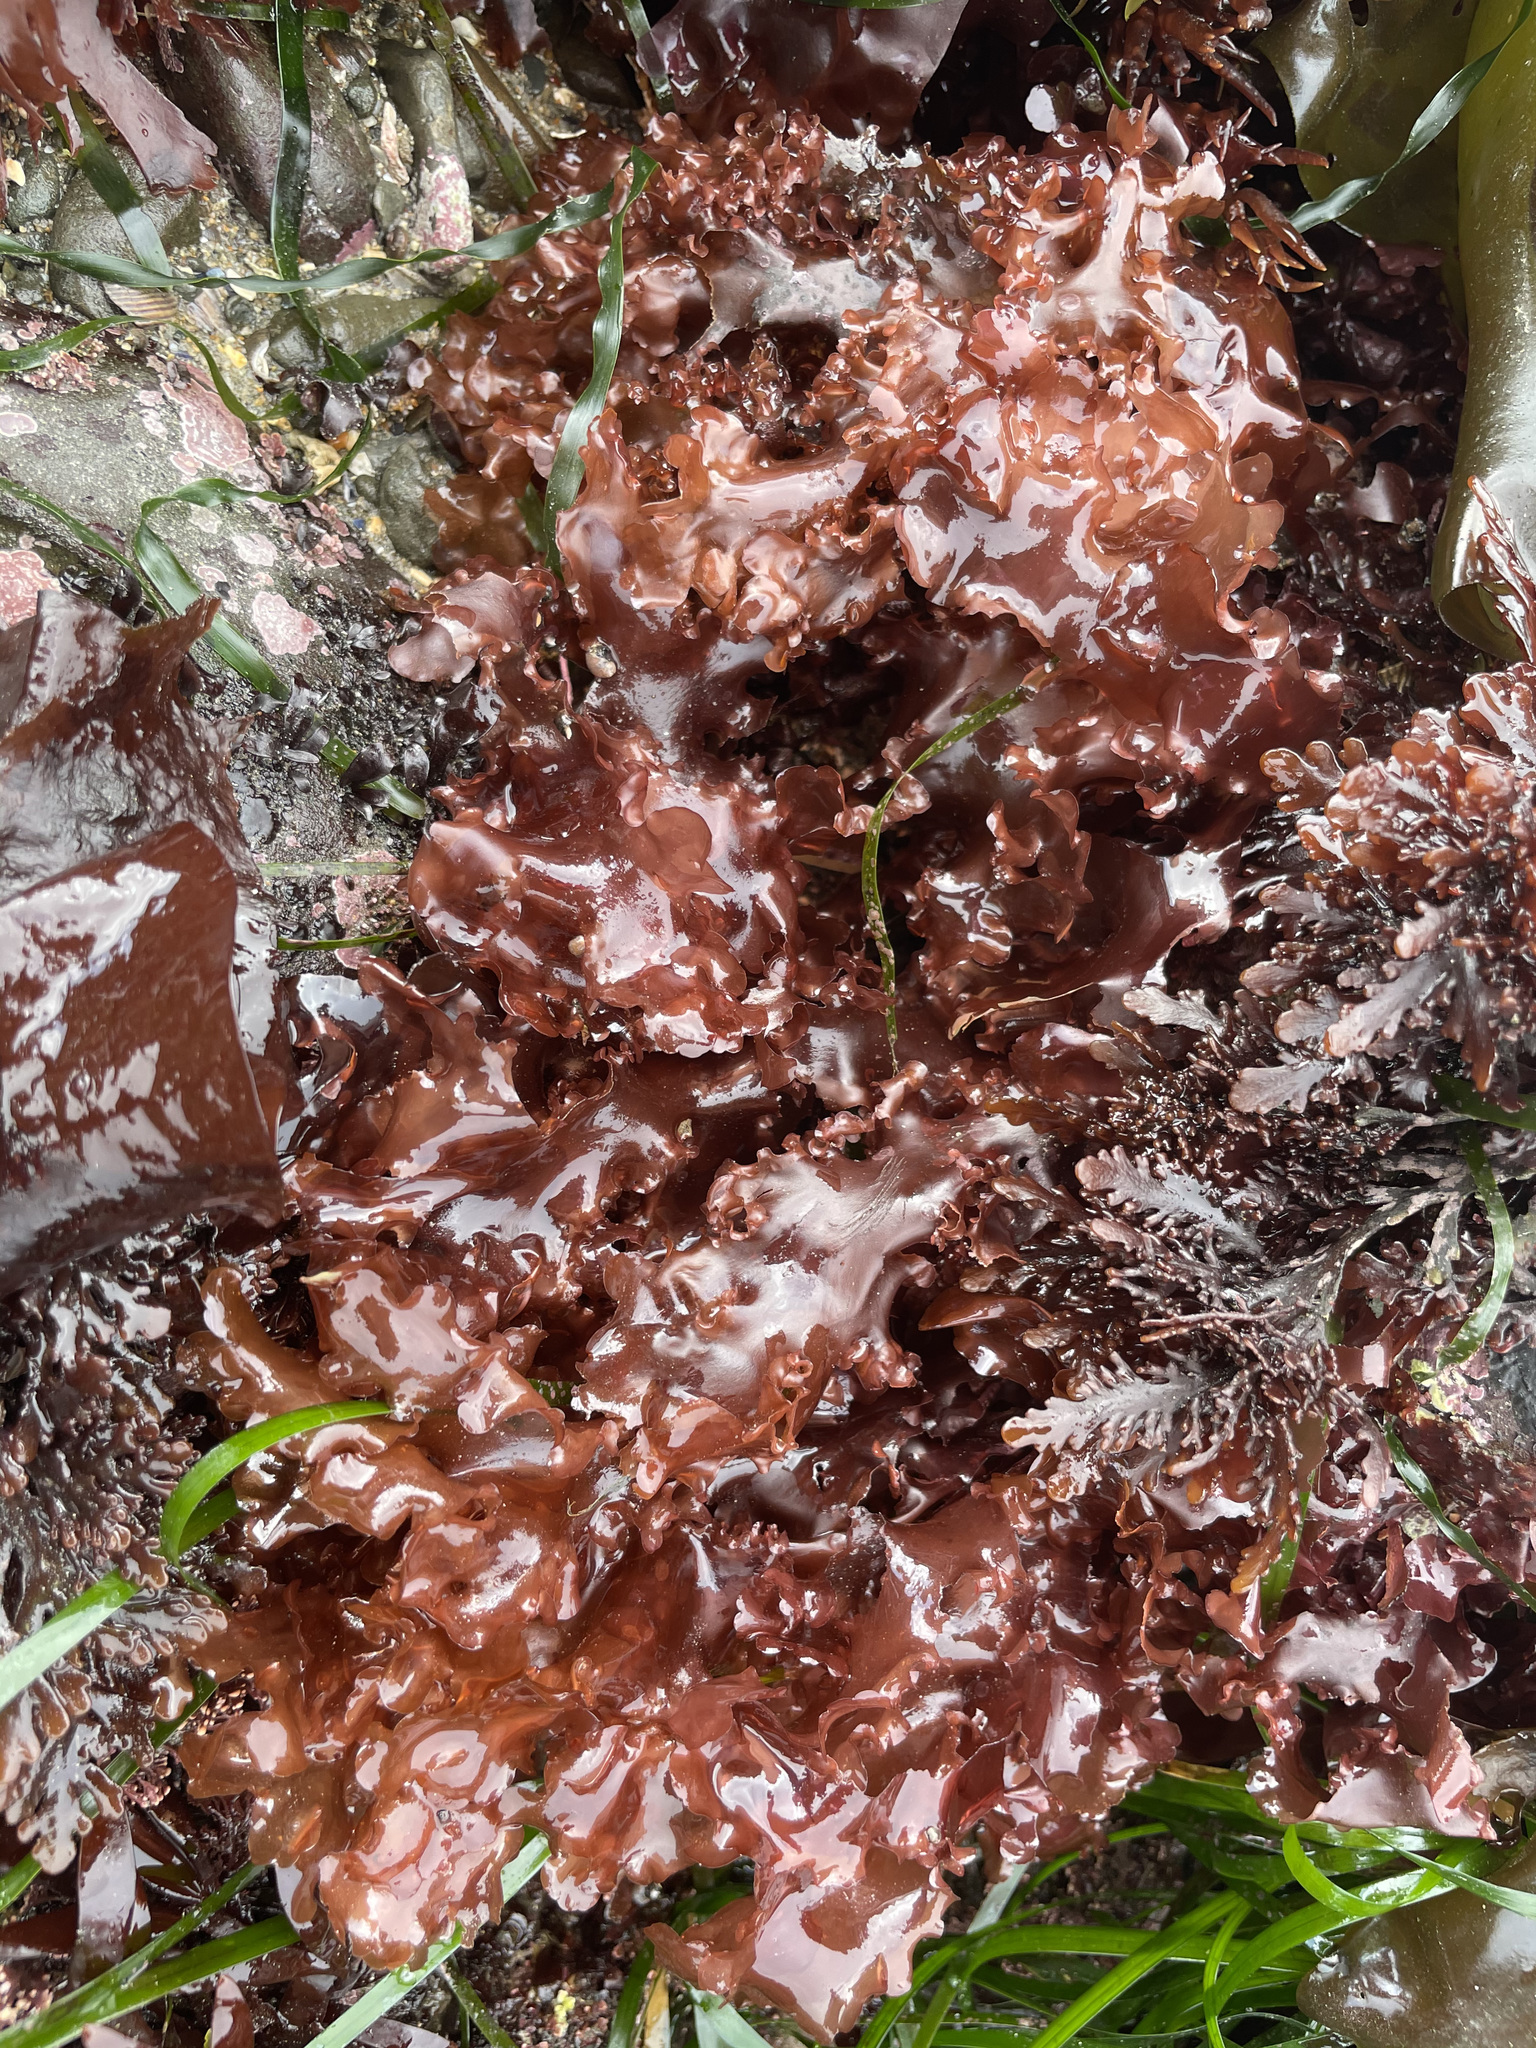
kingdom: Plantae
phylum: Rhodophyta
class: Florideophyceae
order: Ceramiales
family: Delesseriaceae
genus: Cryptopleura
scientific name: Cryptopleura ruprechtiana
